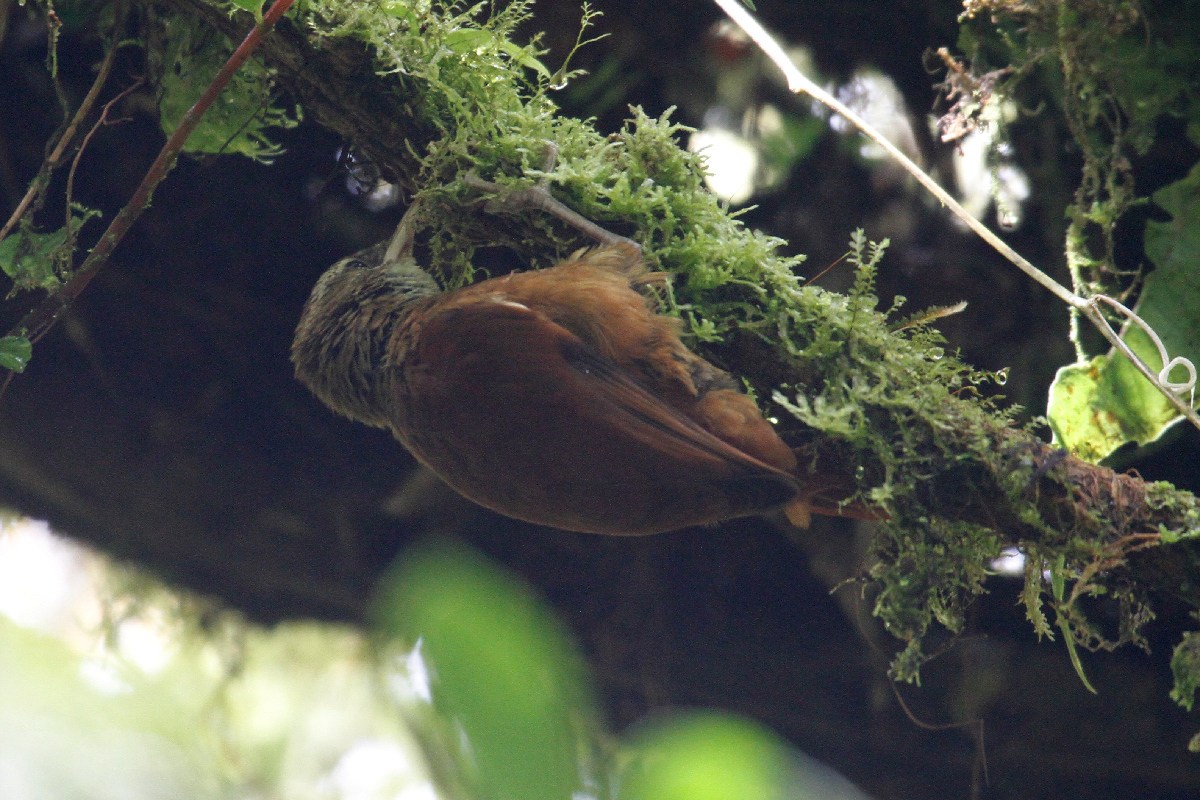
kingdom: Animalia
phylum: Chordata
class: Aves
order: Passeriformes
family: Furnariidae
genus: Margarornis
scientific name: Margarornis rubiginosus
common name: Ruddy treerunner
